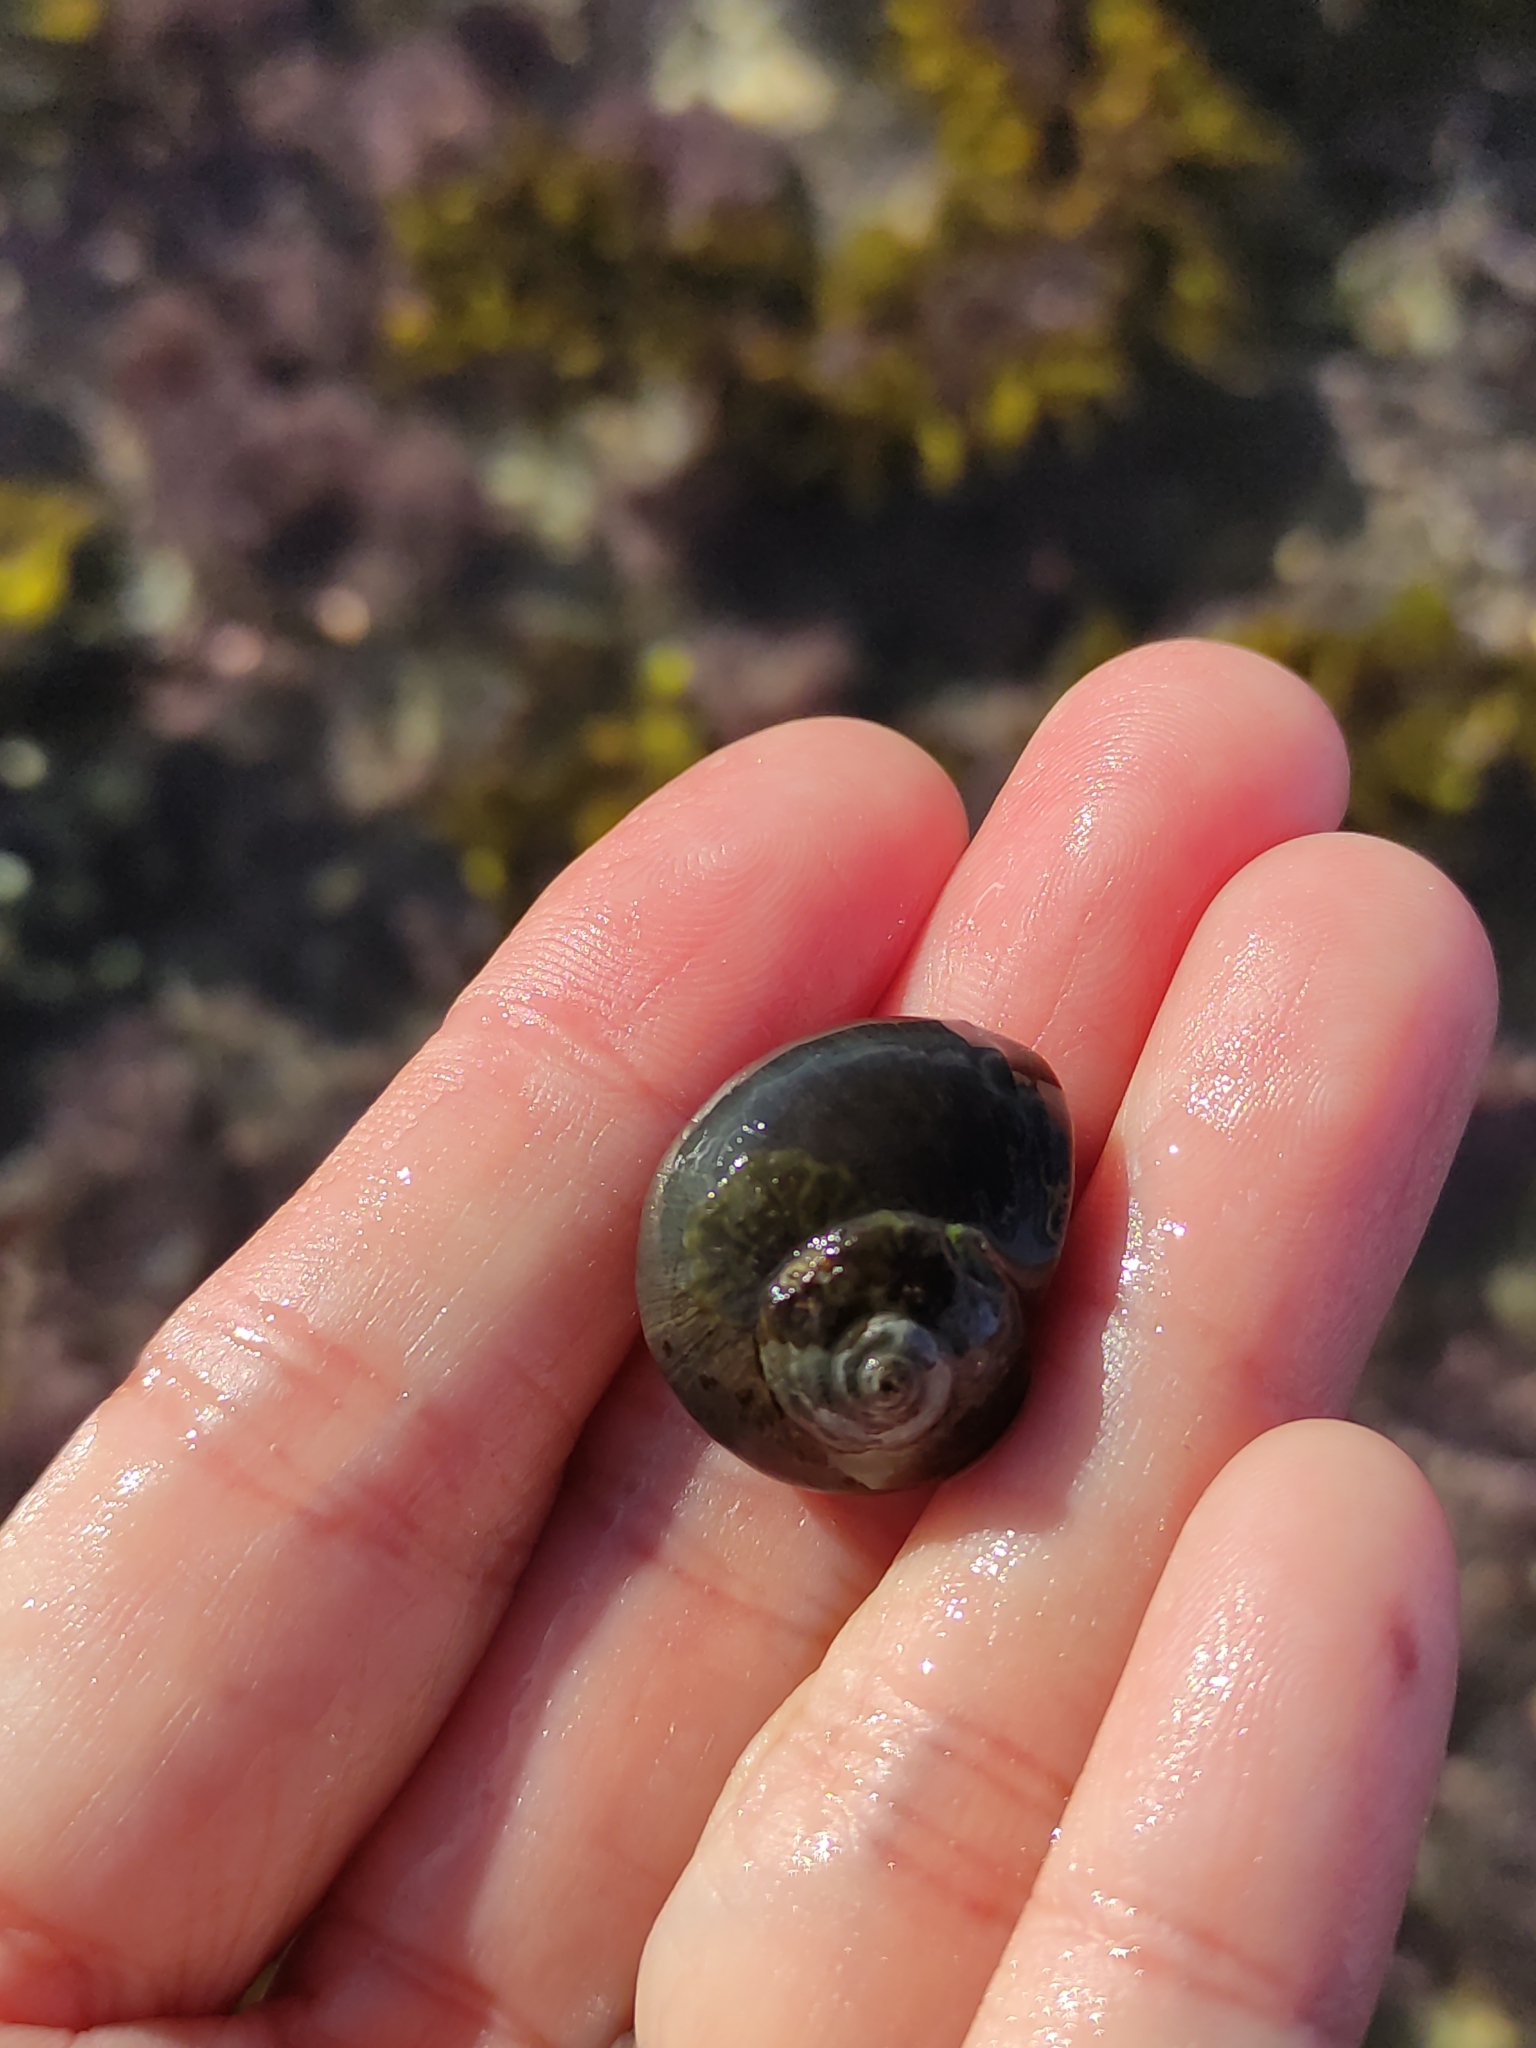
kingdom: Animalia
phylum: Mollusca
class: Gastropoda
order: Trochida
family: Turbinidae
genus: Lunella
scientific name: Lunella smaragda
